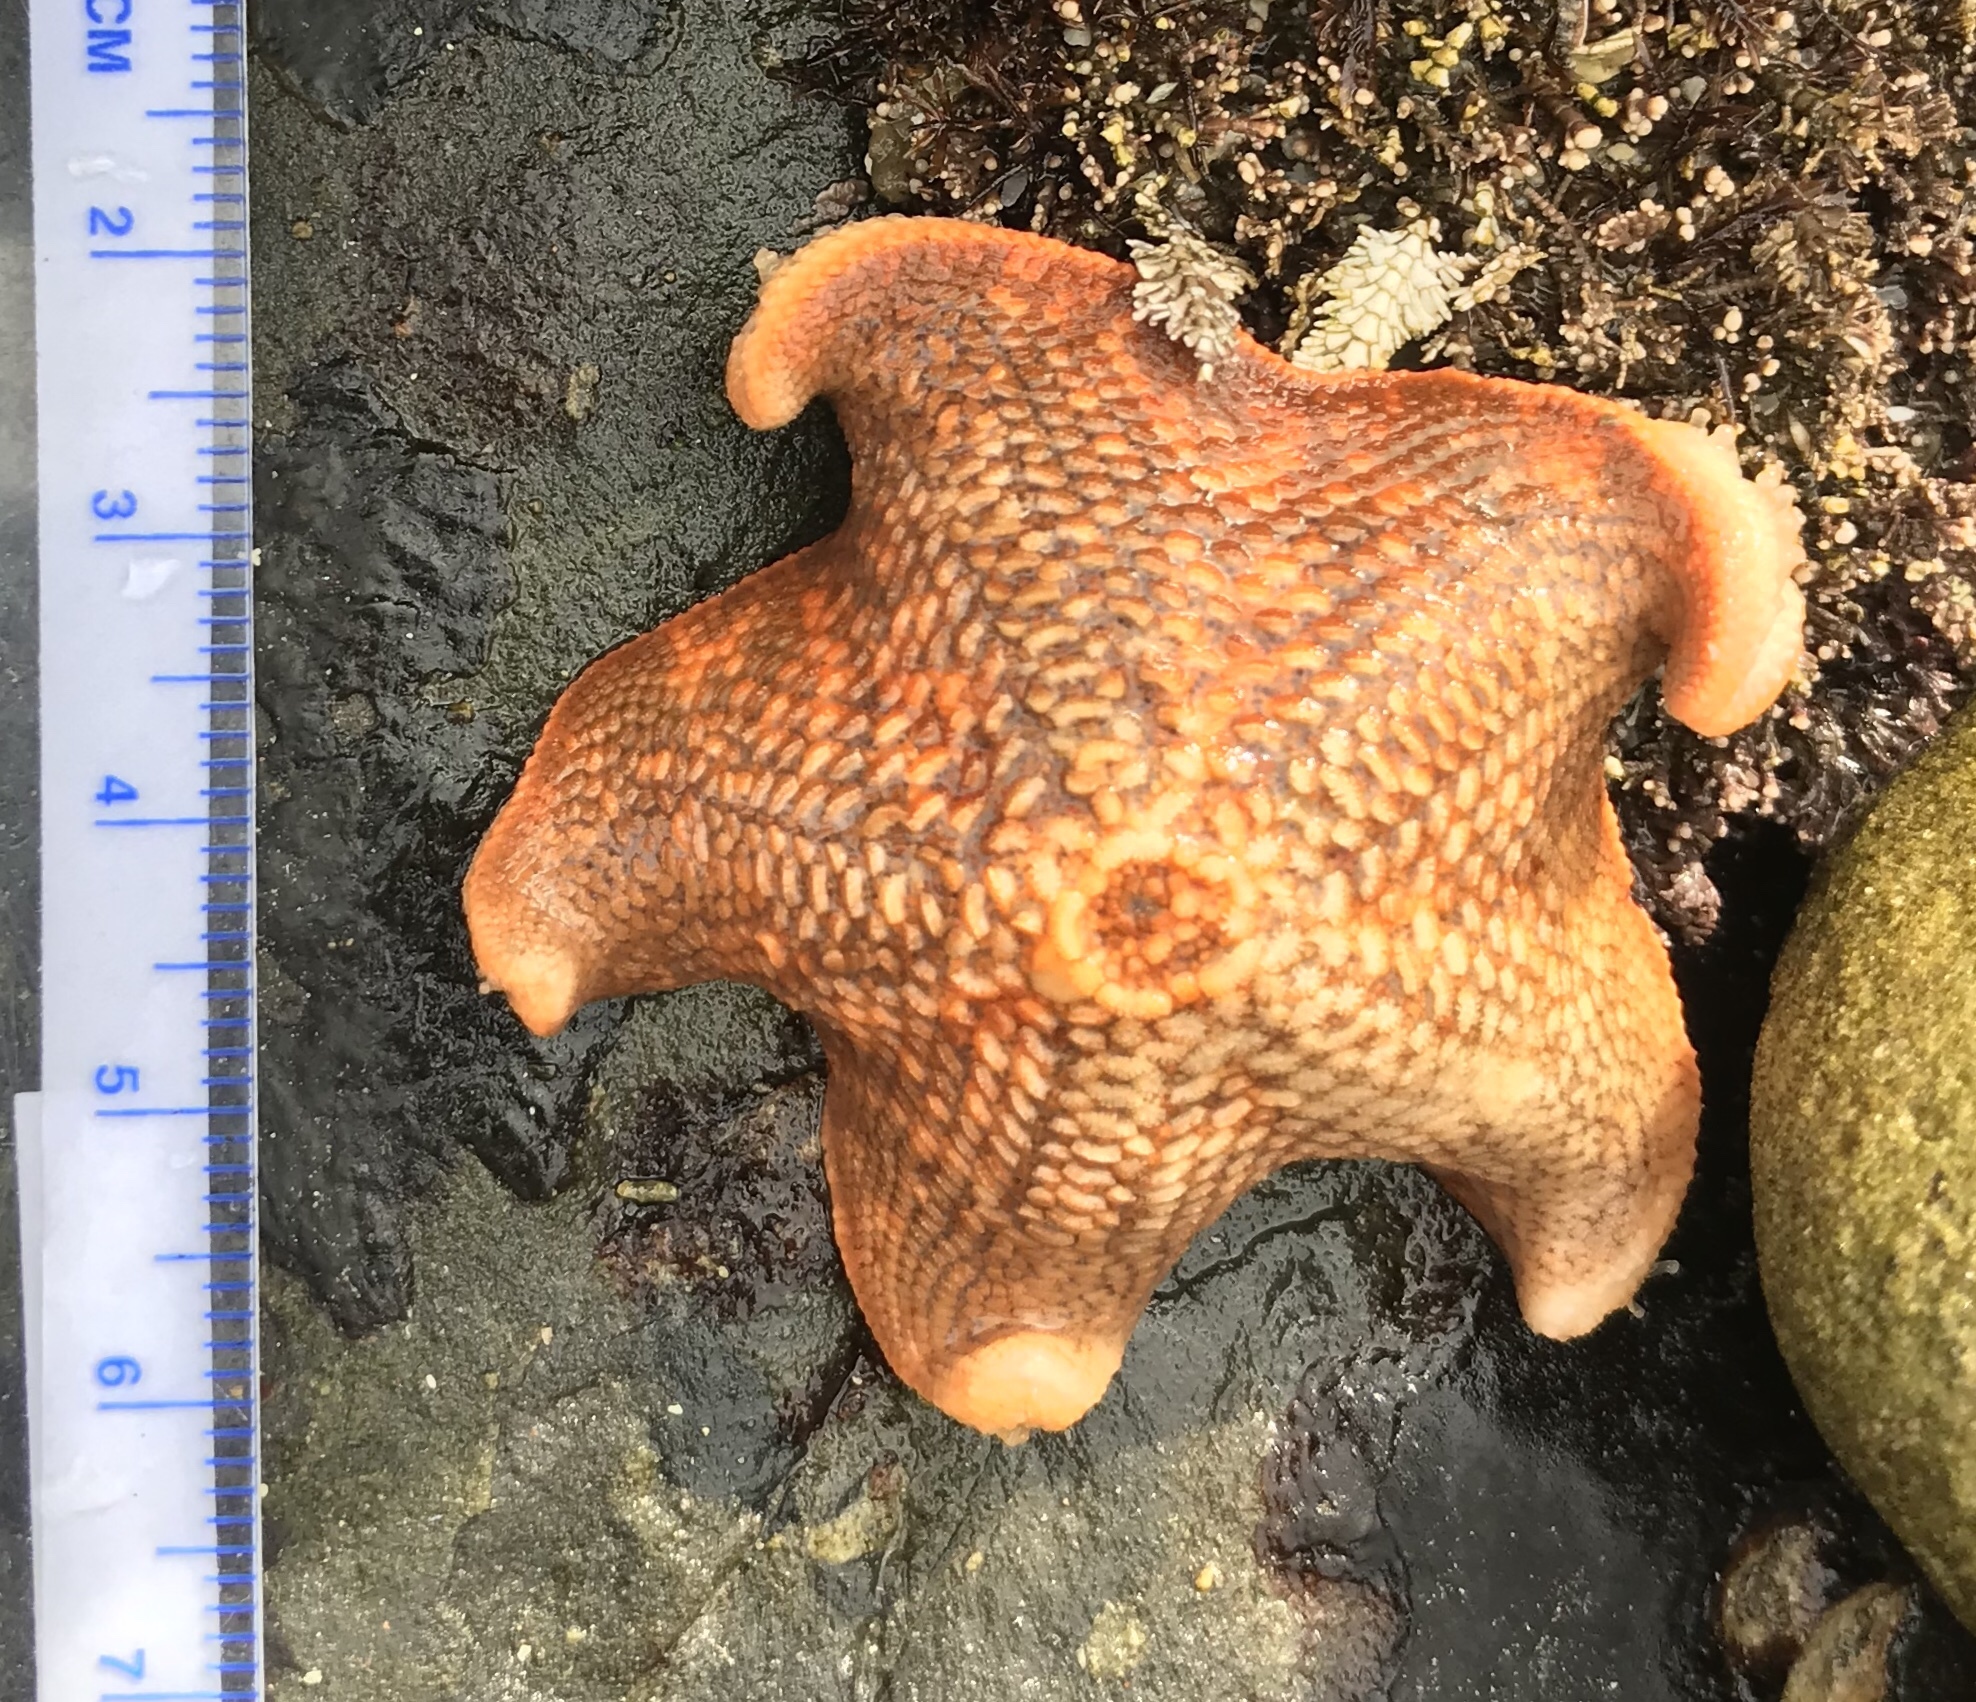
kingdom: Animalia
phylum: Echinodermata
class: Asteroidea
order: Valvatida
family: Asterinidae
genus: Patiria
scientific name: Patiria miniata
